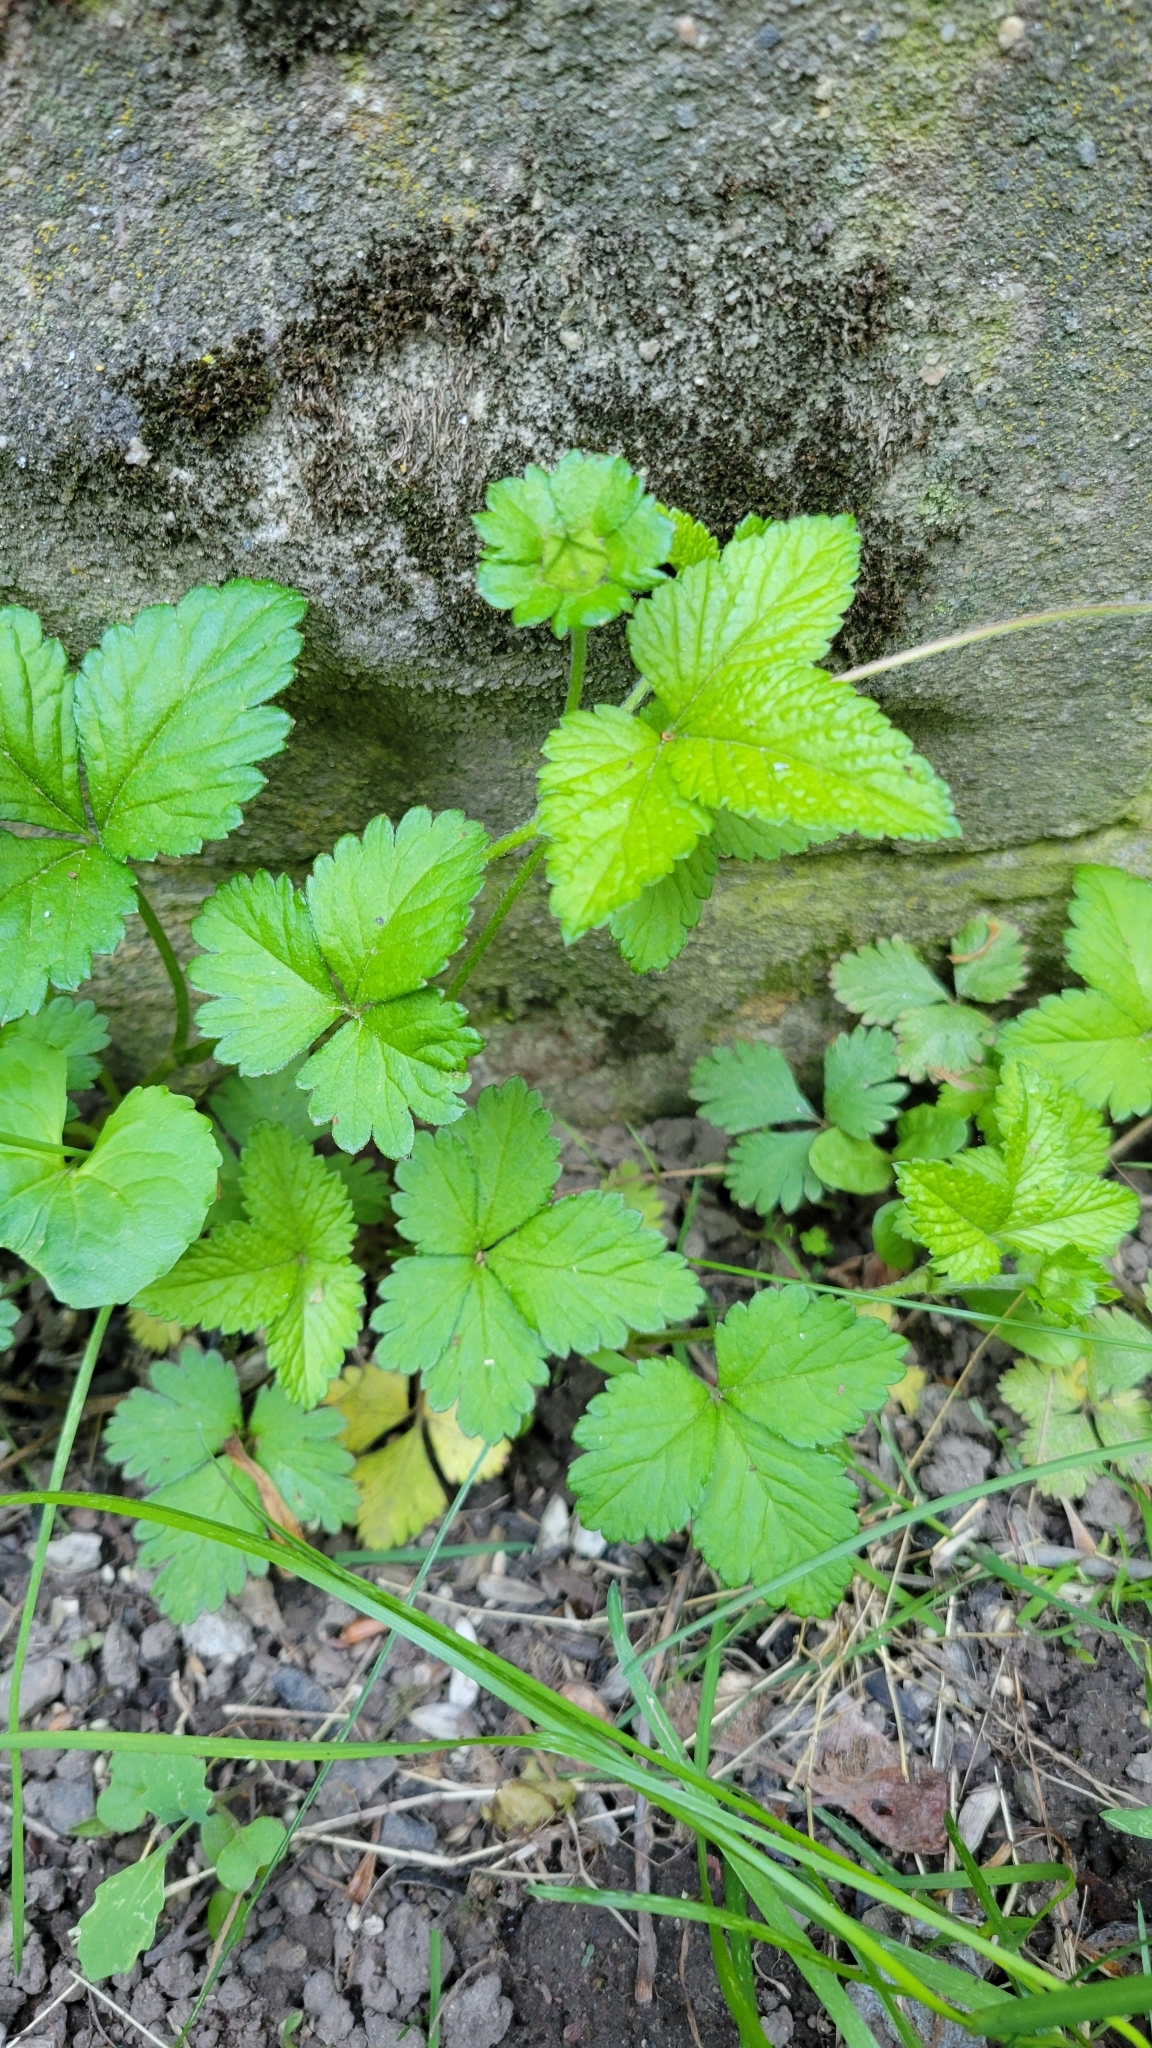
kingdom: Plantae
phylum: Tracheophyta
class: Magnoliopsida
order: Rosales
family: Rosaceae
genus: Potentilla
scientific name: Potentilla indica
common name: Yellow-flowered strawberry
